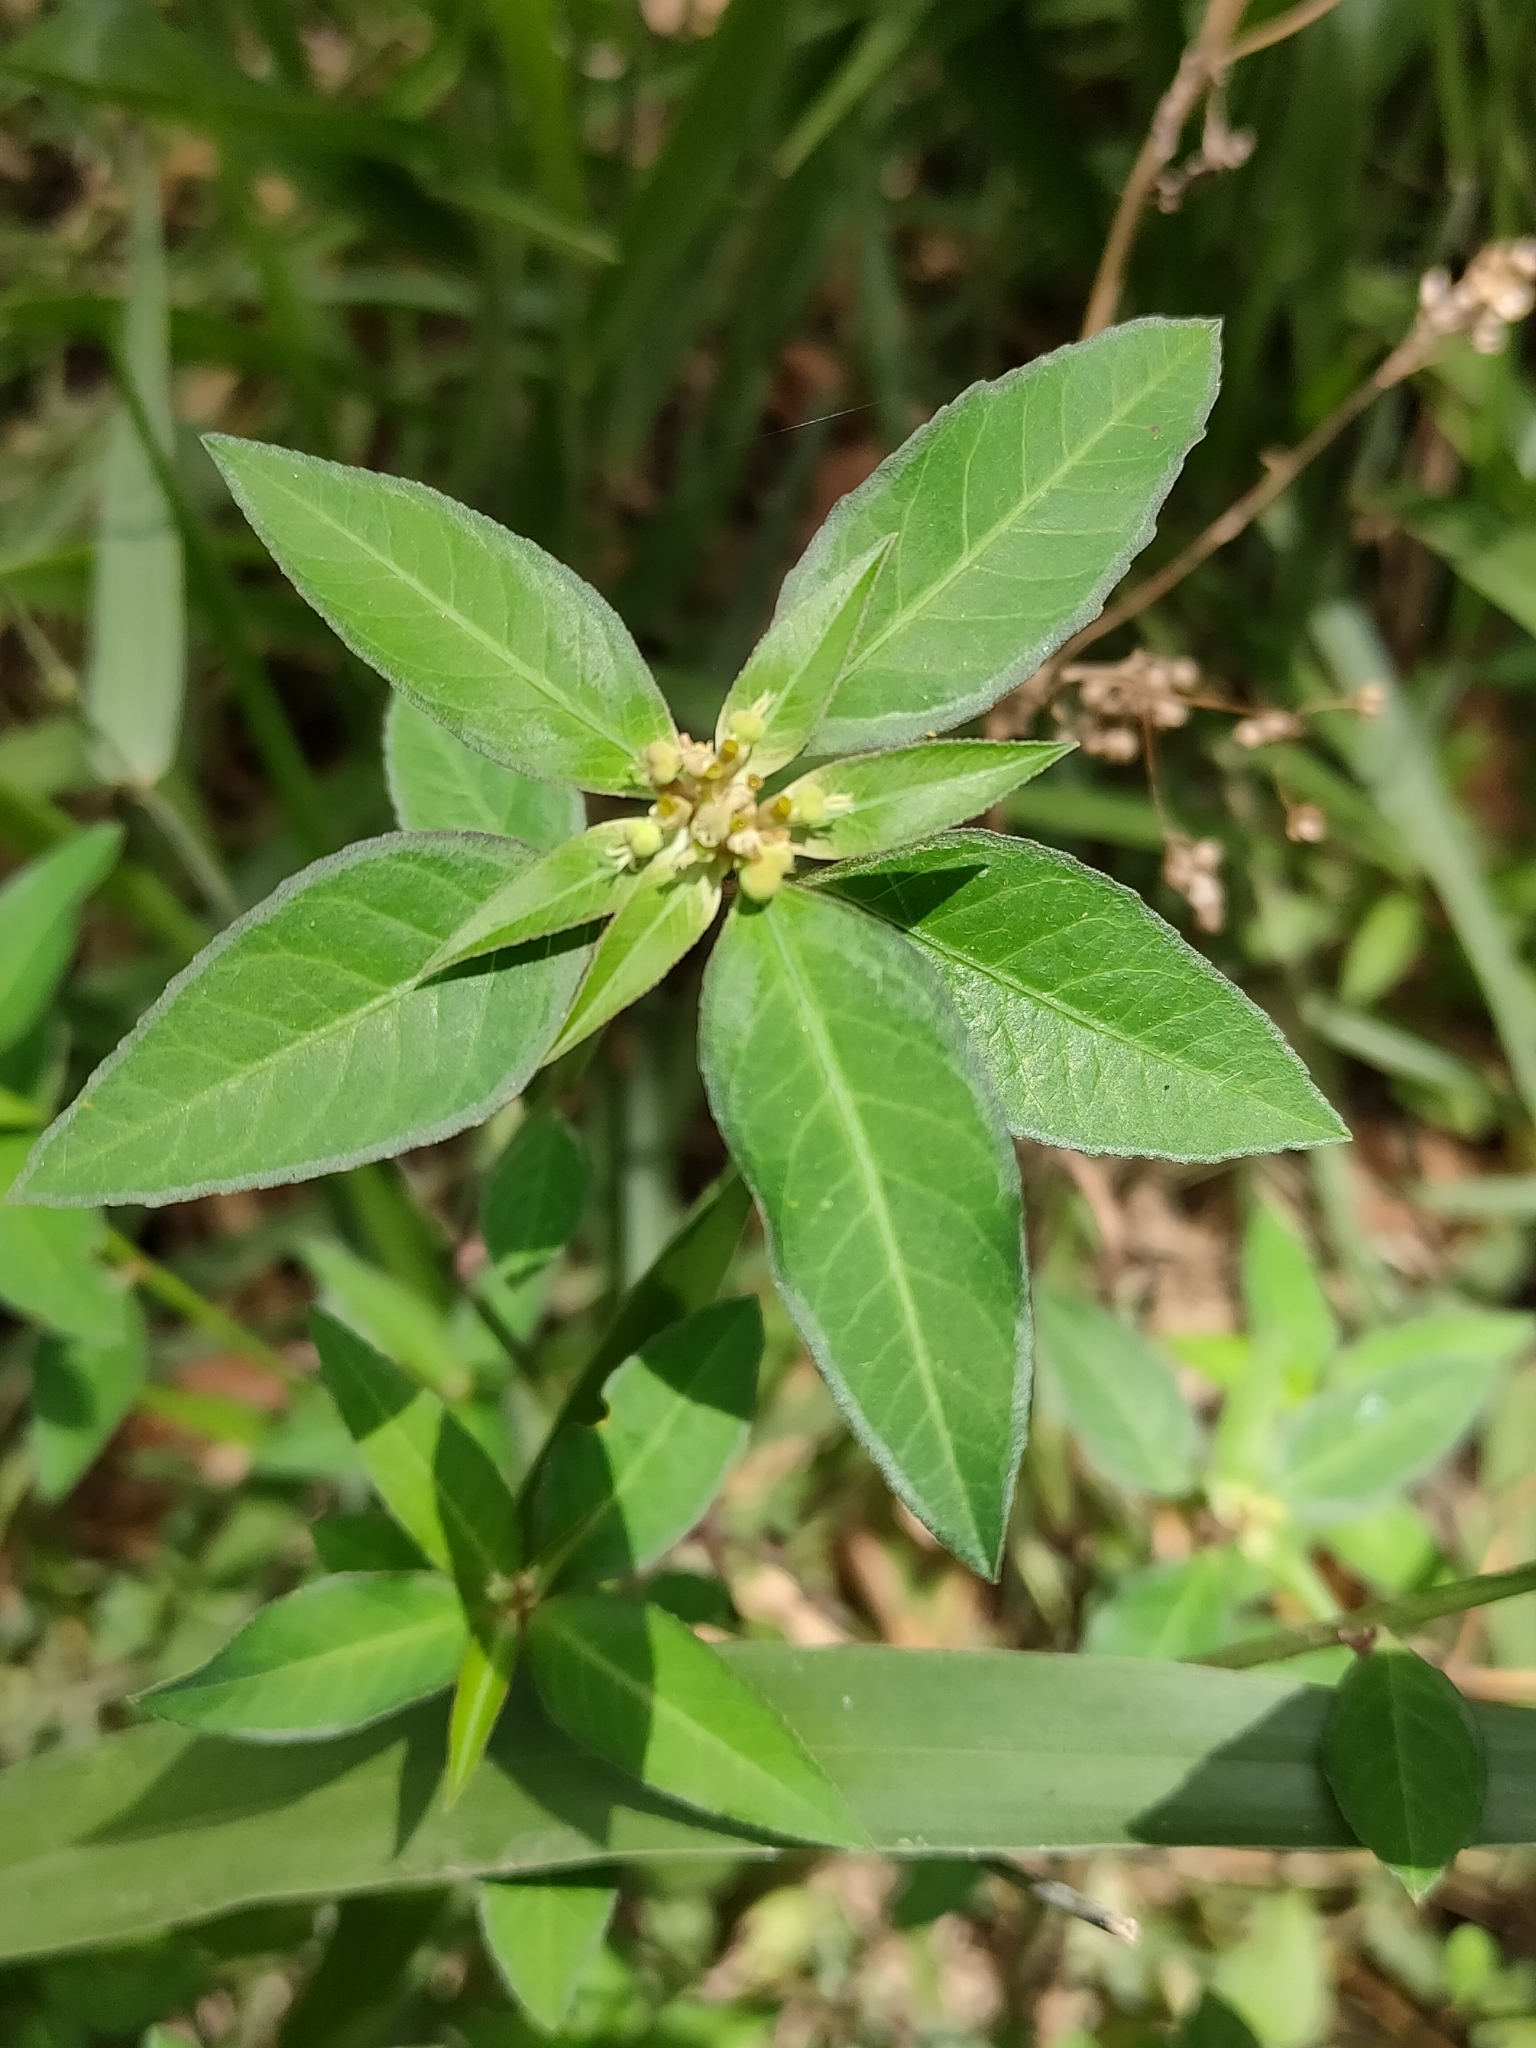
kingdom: Plantae
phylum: Tracheophyta
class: Magnoliopsida
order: Malpighiales
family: Euphorbiaceae
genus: Euphorbia
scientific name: Euphorbia heterophylla
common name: Mexican fireplant
